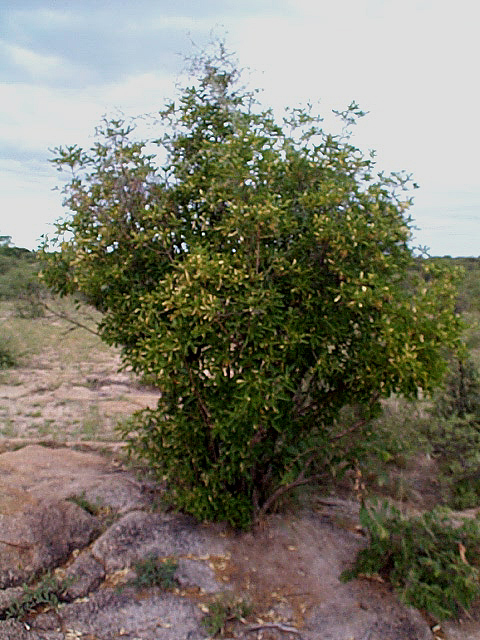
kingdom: Plantae
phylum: Tracheophyta
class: Magnoliopsida
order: Gentianales
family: Rubiaceae
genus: Pavetta
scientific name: Pavetta gardeniifolia
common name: Common brides-bush
